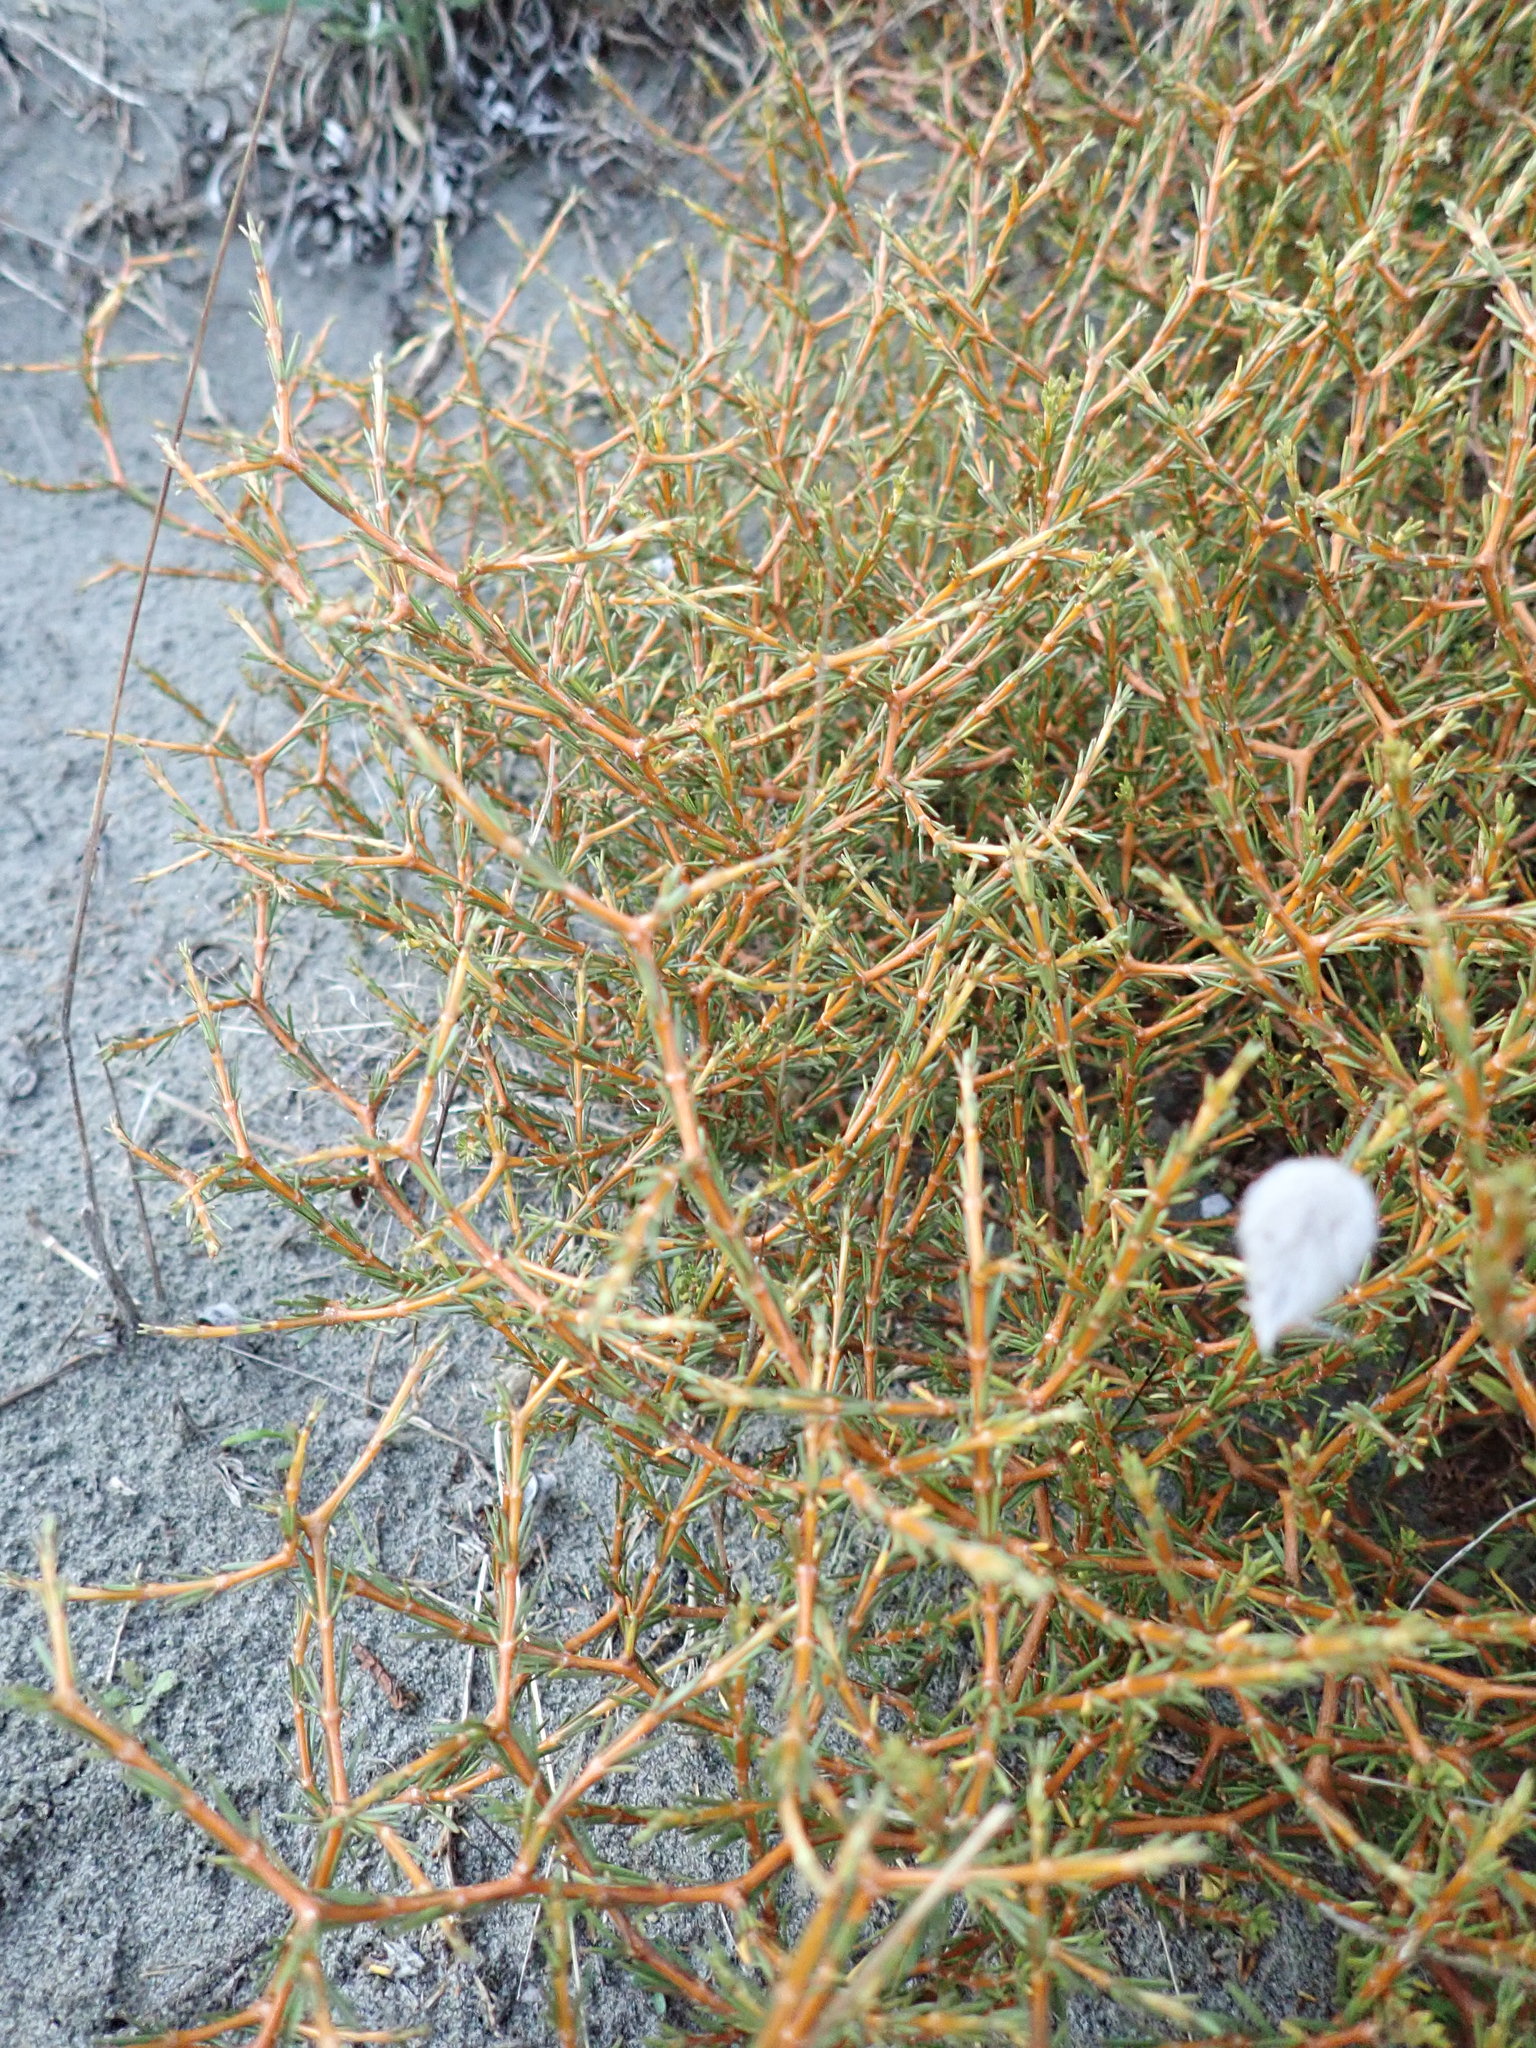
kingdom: Plantae
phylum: Tracheophyta
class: Magnoliopsida
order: Gentianales
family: Rubiaceae
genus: Coprosma
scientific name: Coprosma acerosa
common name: Sand coprosma
